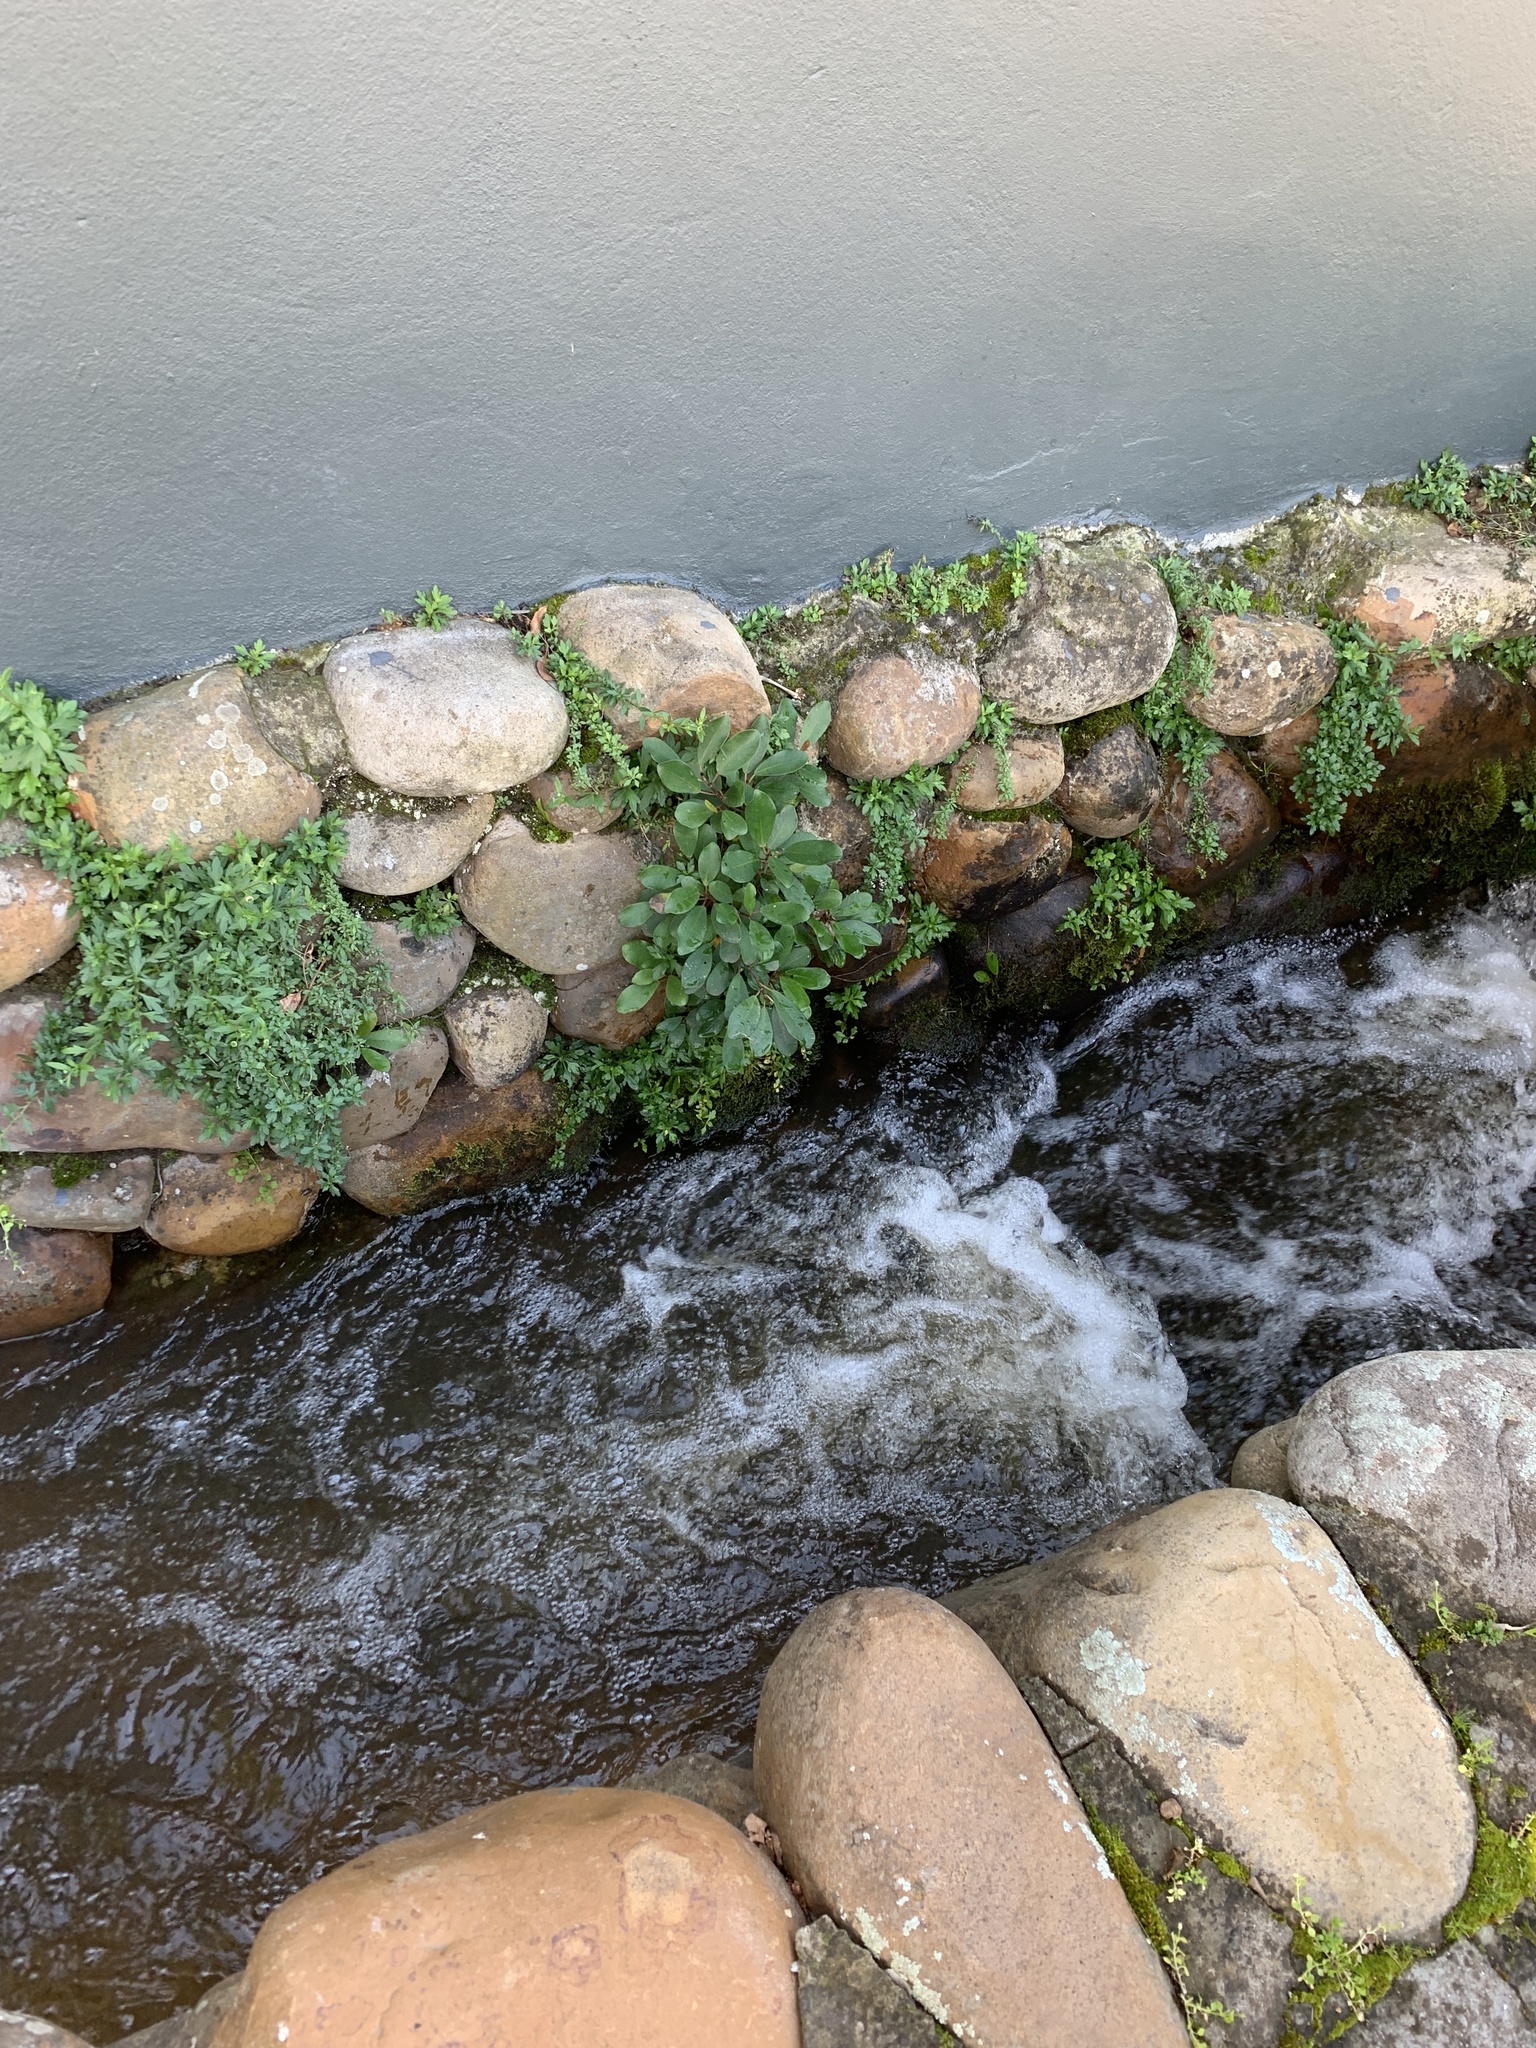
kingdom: Plantae
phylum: Tracheophyta
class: Magnoliopsida
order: Rosales
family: Moraceae
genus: Ficus
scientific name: Ficus thonningii
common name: Fig
